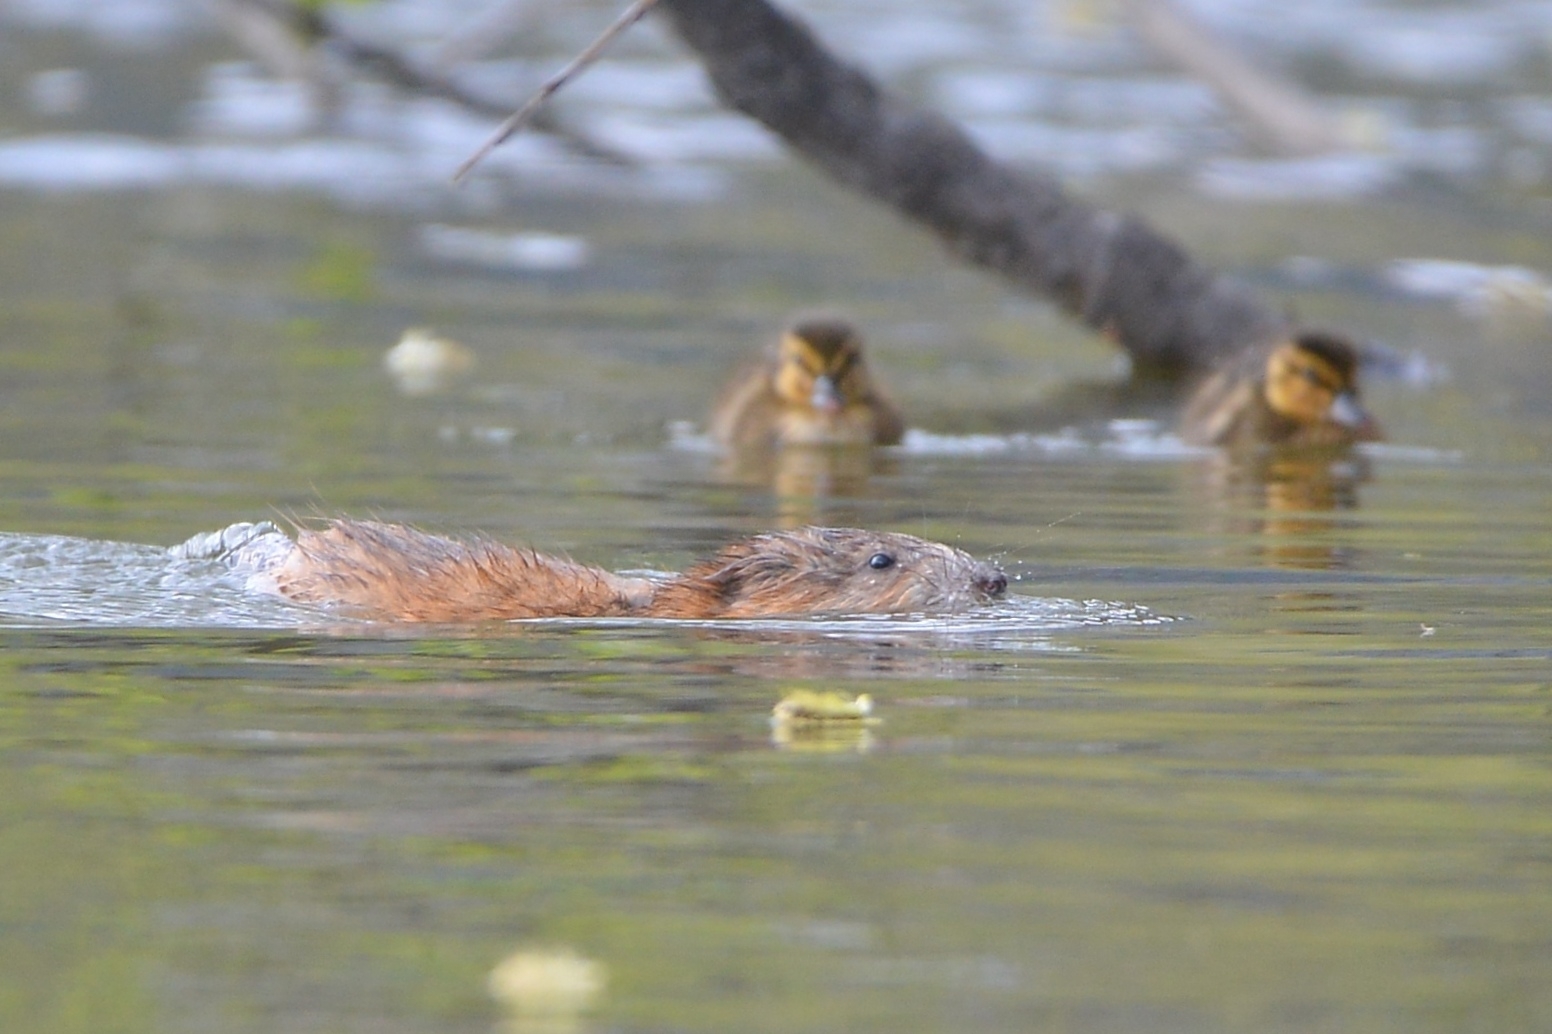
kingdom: Animalia
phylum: Chordata
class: Mammalia
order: Rodentia
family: Cricetidae
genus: Ondatra
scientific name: Ondatra zibethicus
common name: Muskrat
